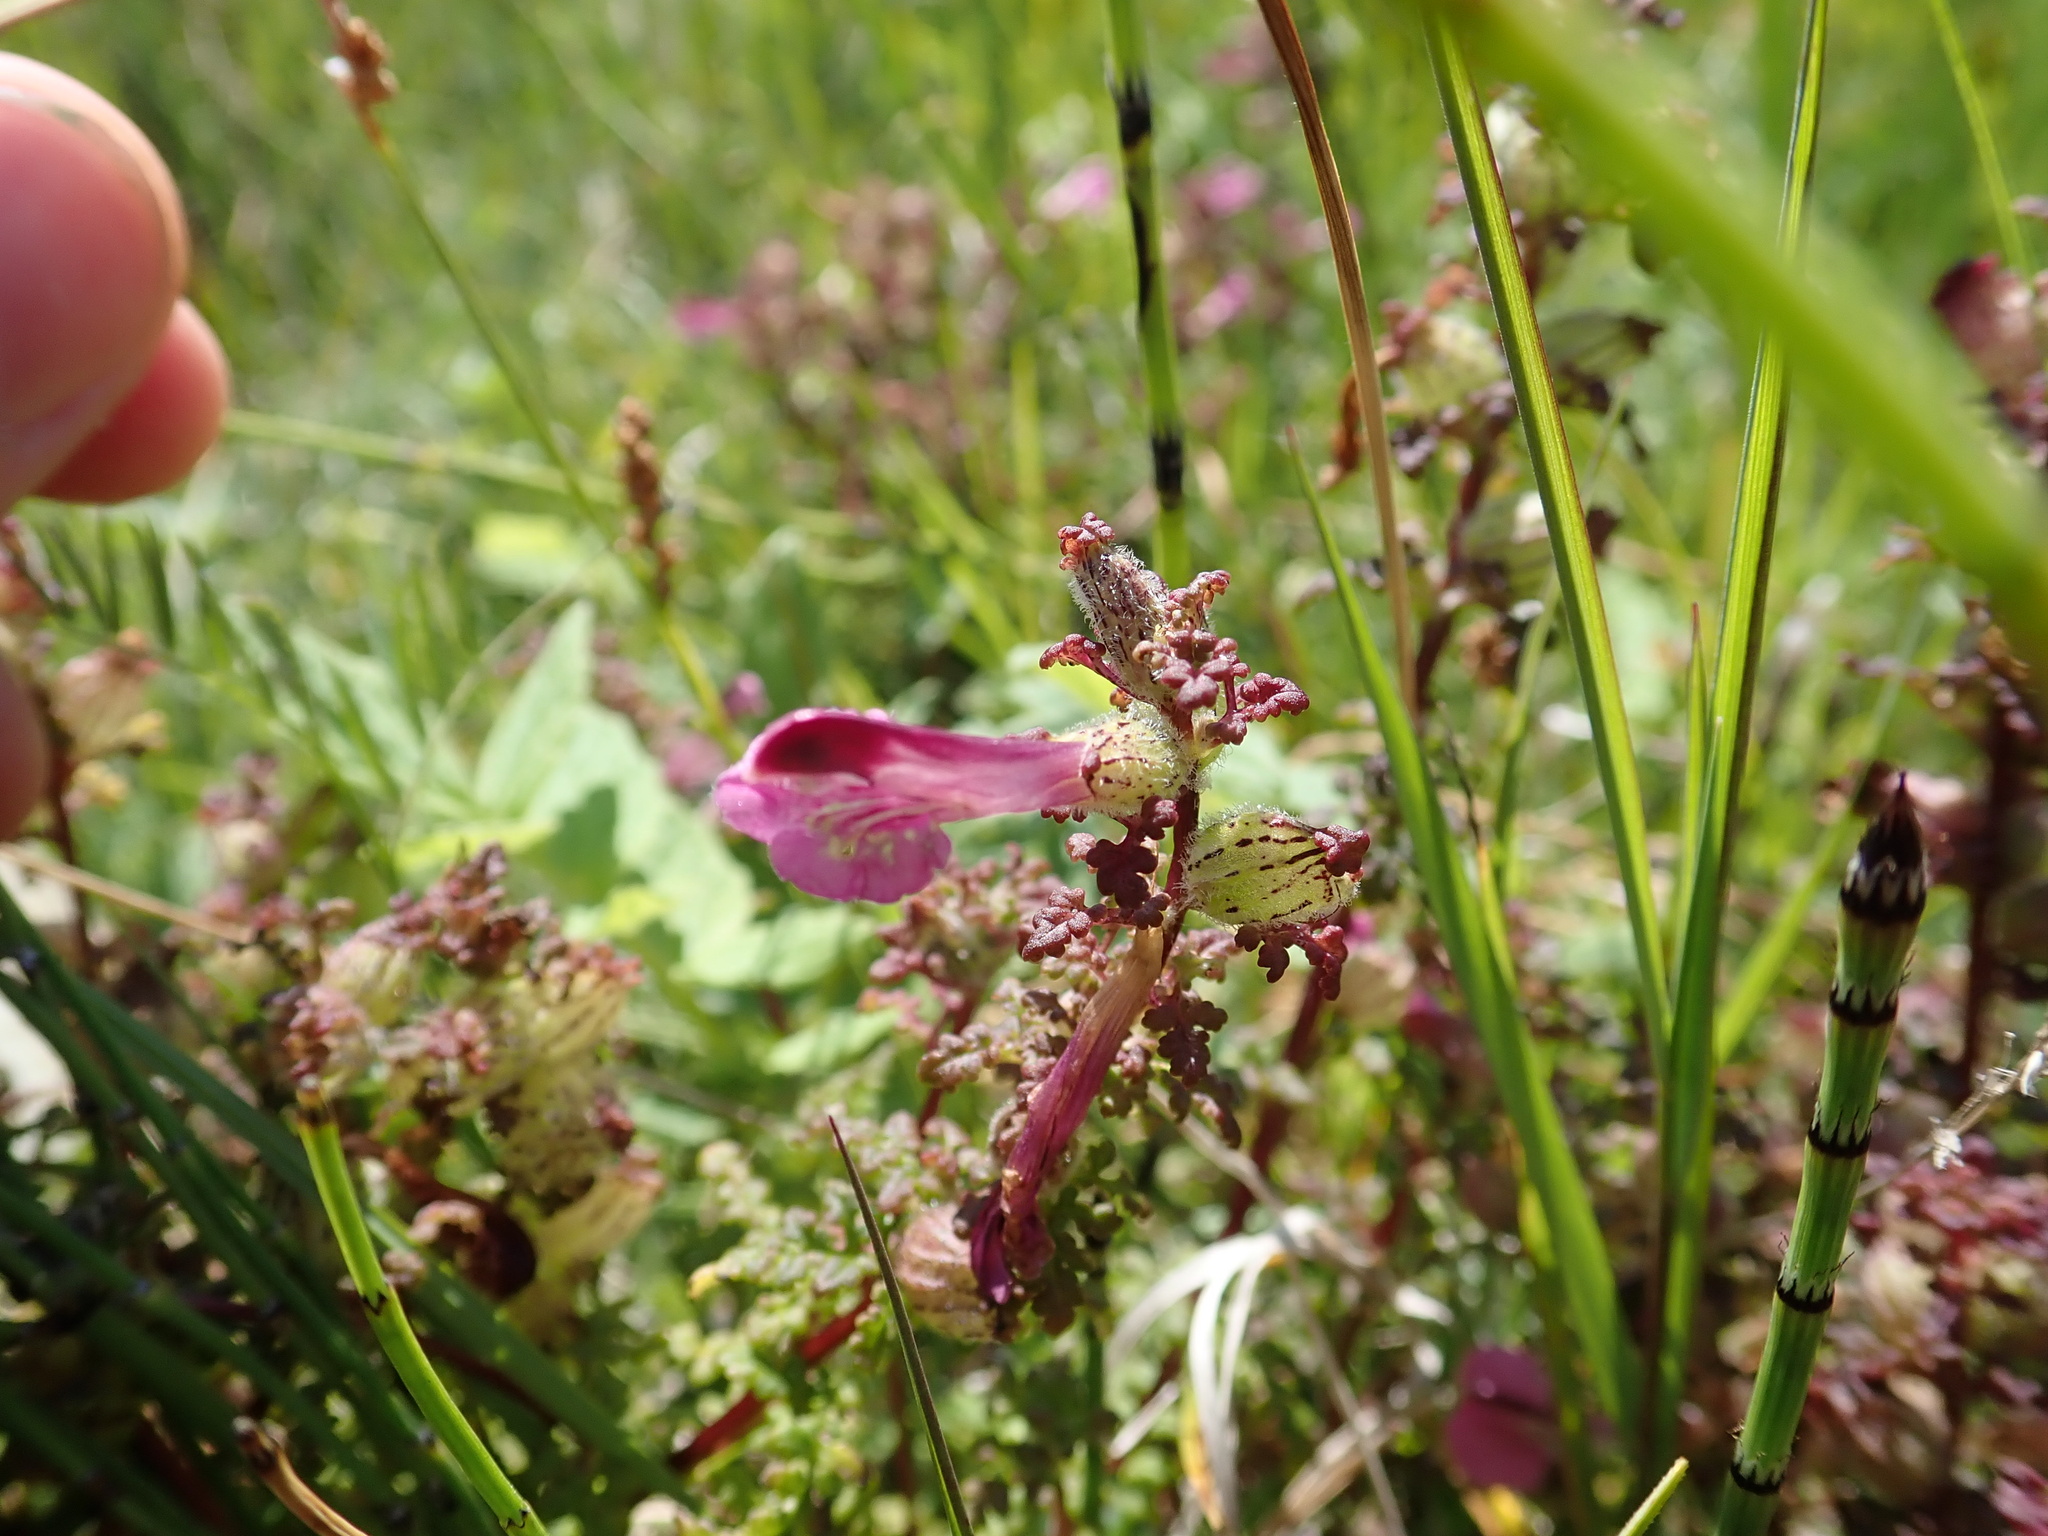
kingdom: Plantae
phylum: Tracheophyta
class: Magnoliopsida
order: Lamiales
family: Orobanchaceae
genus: Pedicularis
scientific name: Pedicularis palustris
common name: Marsh lousewort
